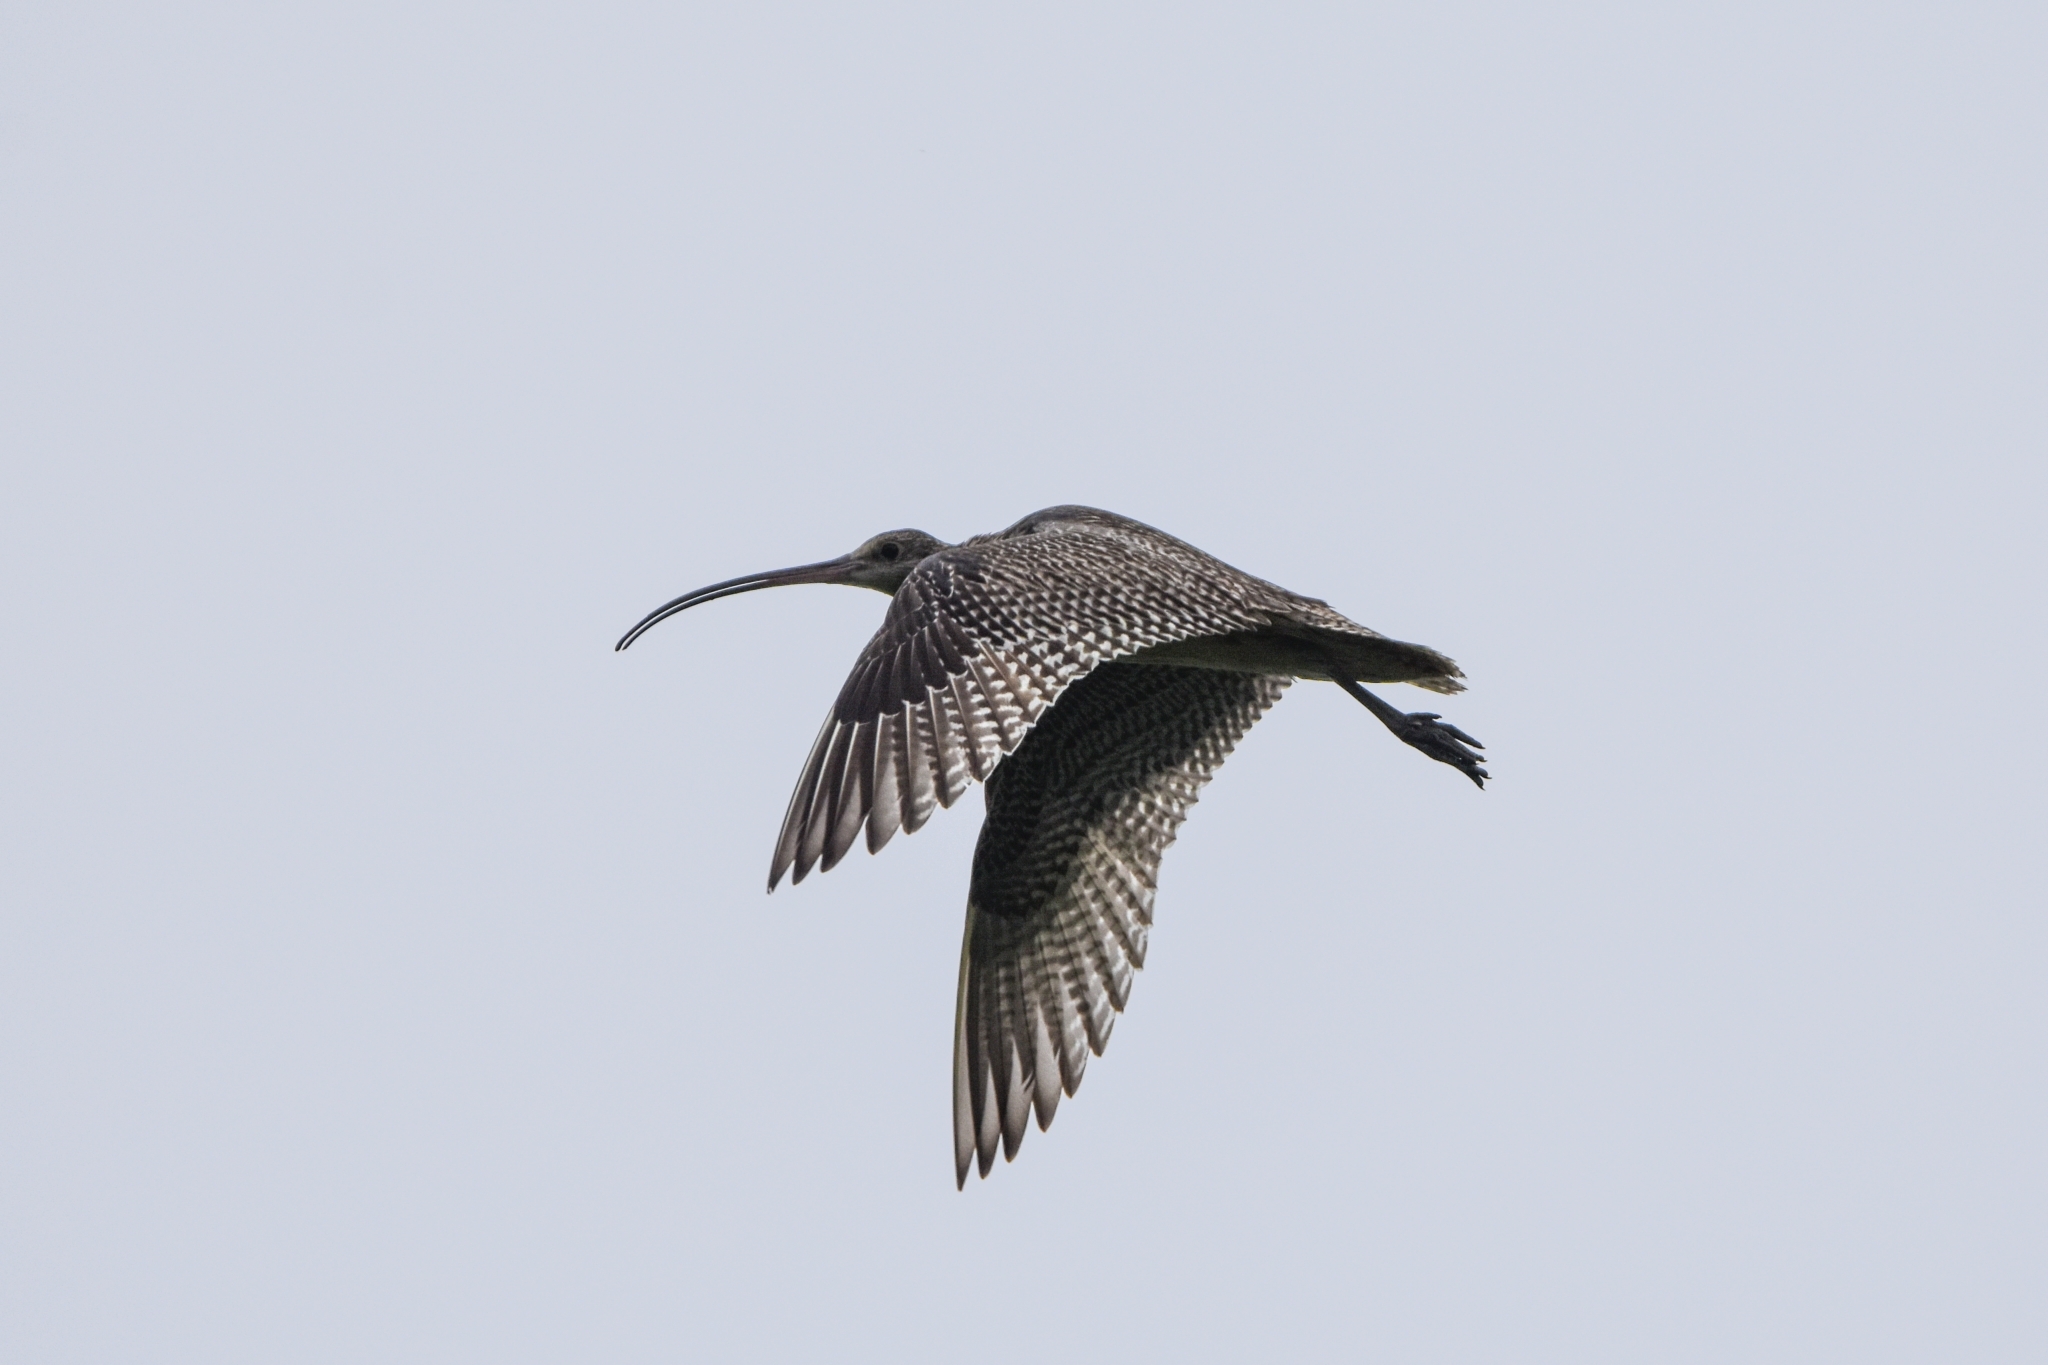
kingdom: Animalia
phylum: Chordata
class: Aves
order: Charadriiformes
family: Scolopacidae
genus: Numenius
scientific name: Numenius madagascariensis
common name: Far eastern curlew
